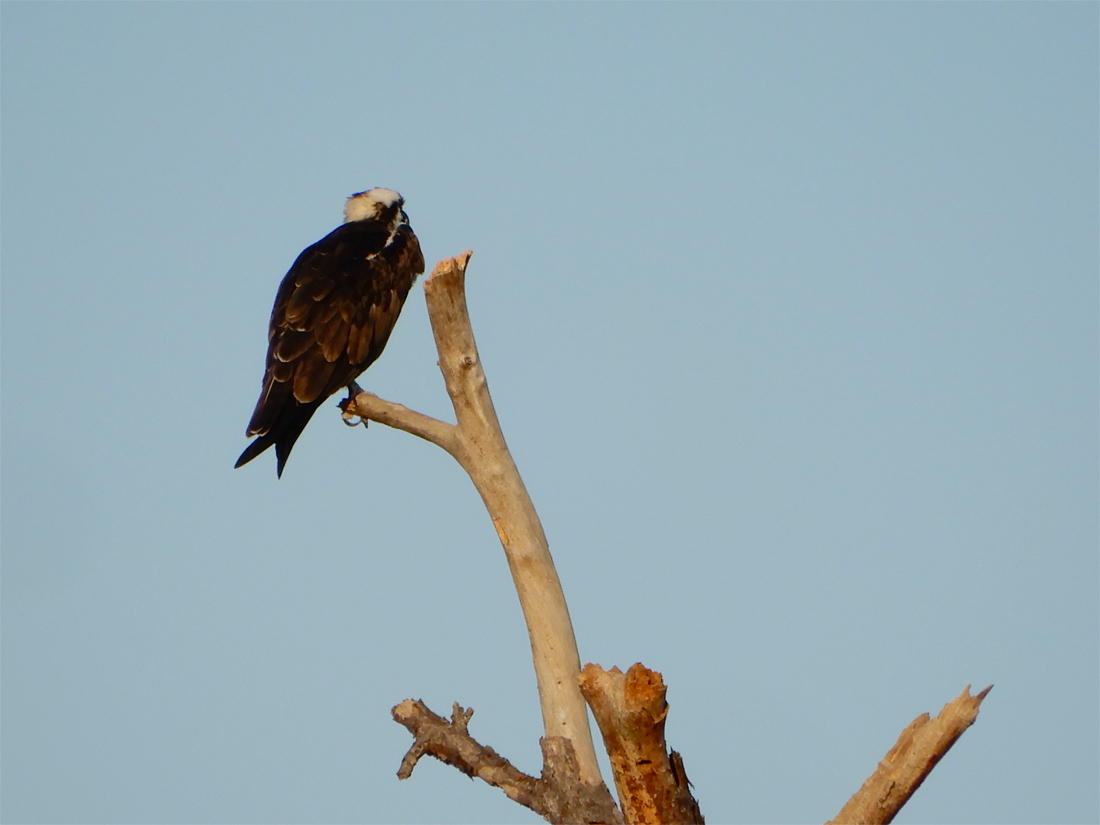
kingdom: Animalia
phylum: Chordata
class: Aves
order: Accipitriformes
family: Pandionidae
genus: Pandion
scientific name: Pandion haliaetus
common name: Osprey
